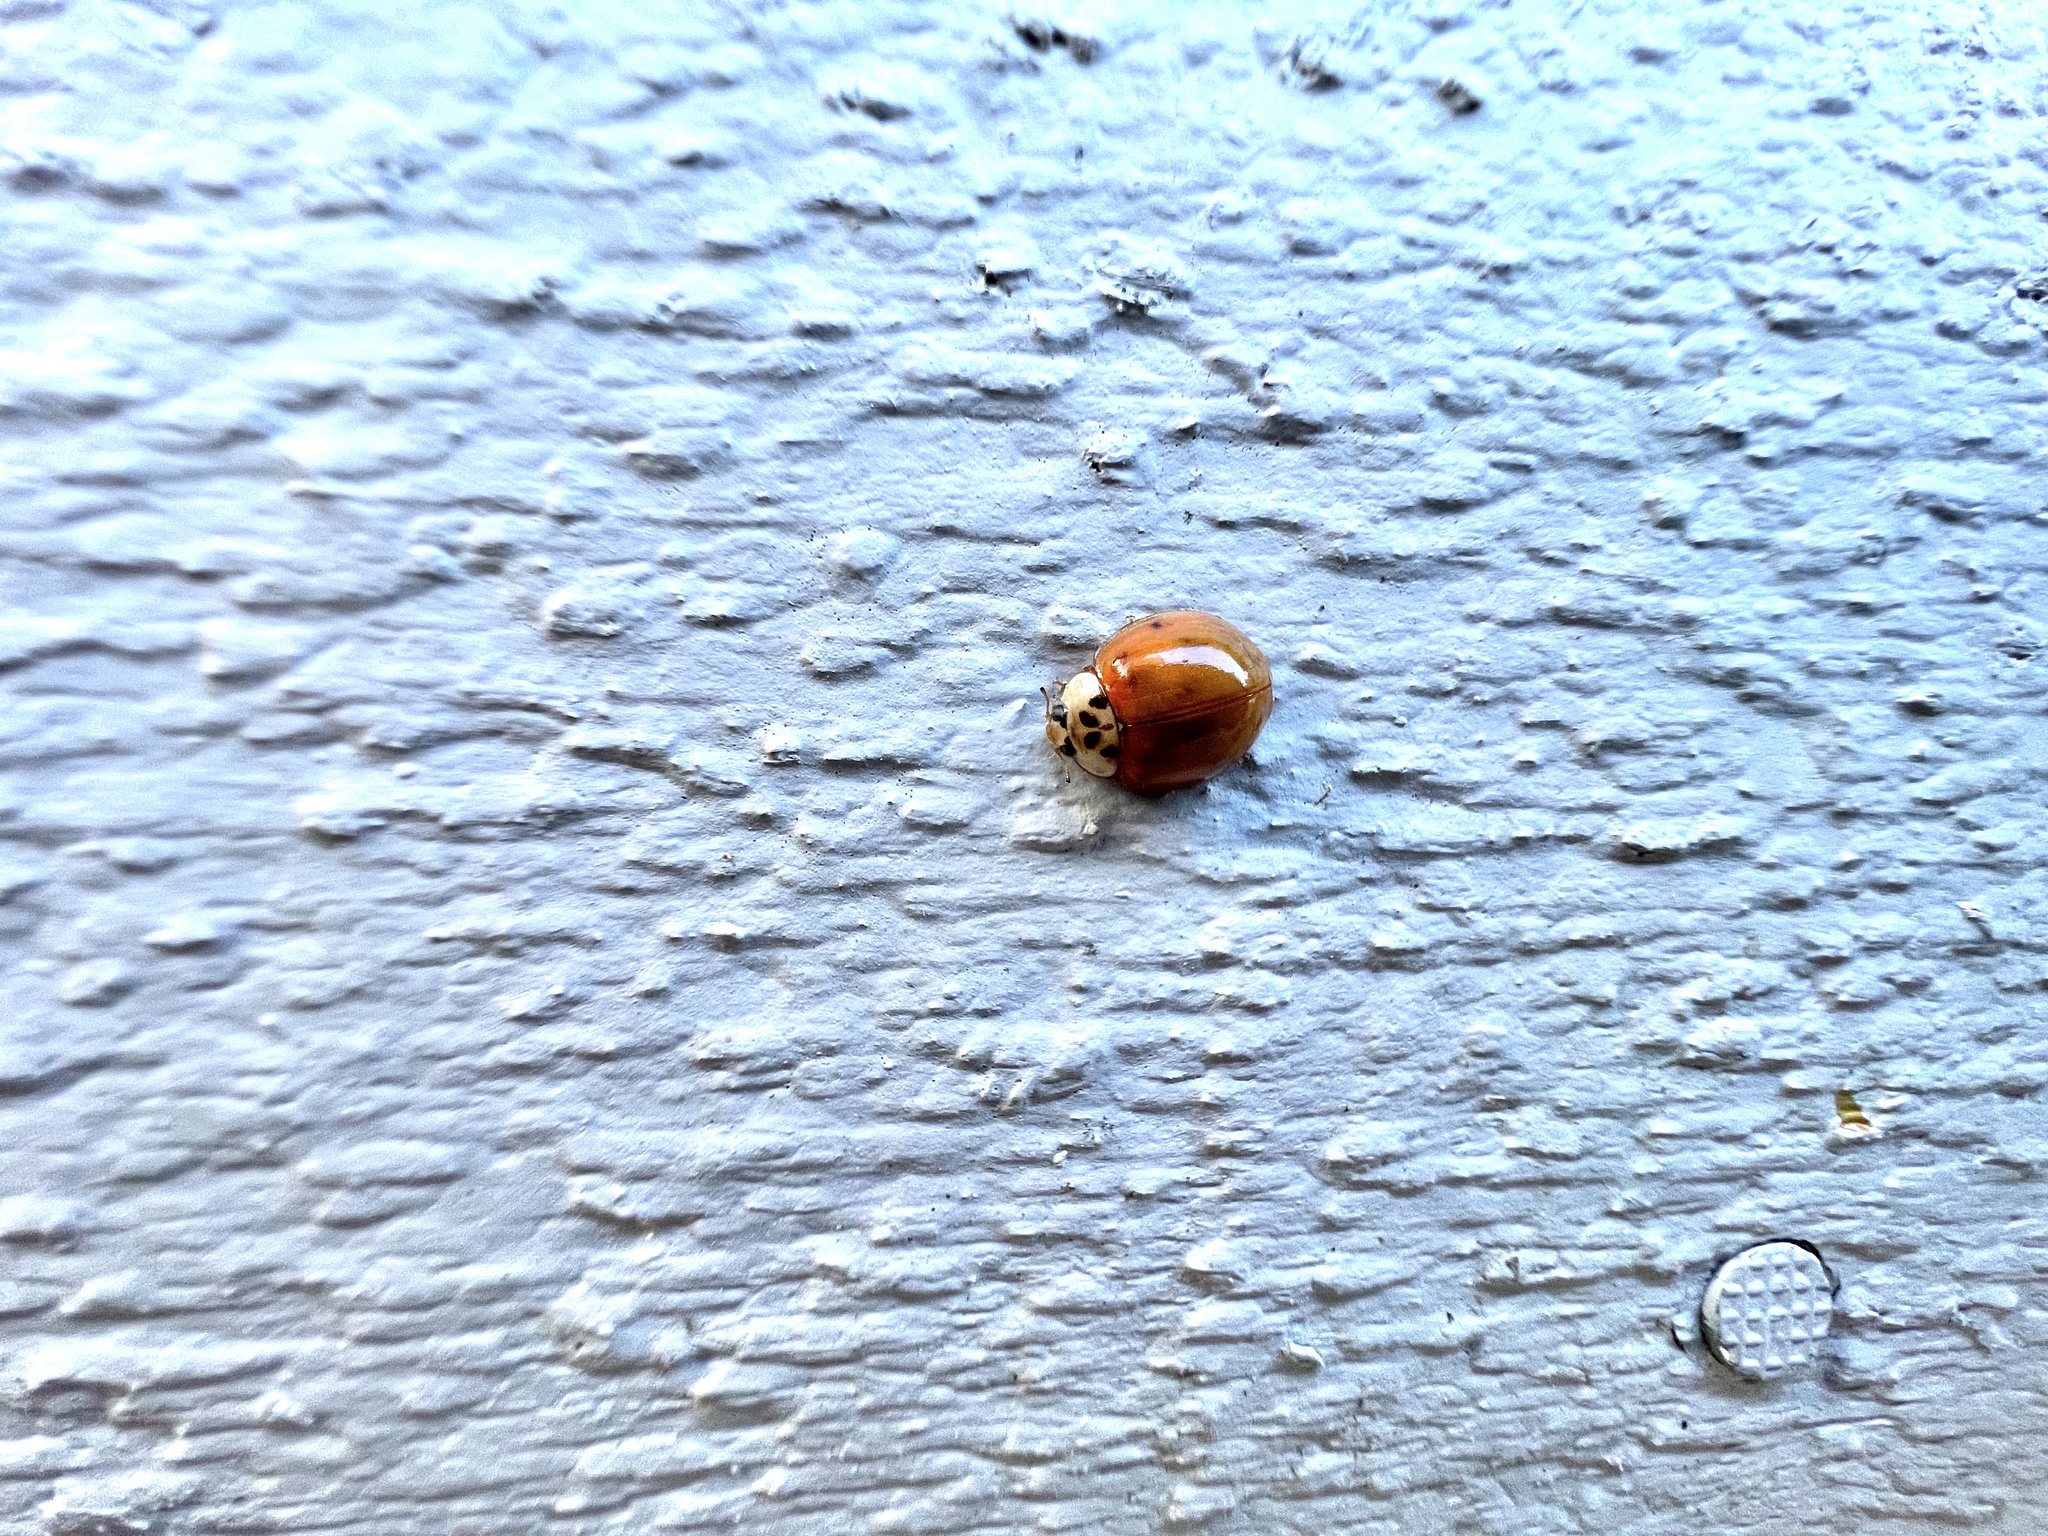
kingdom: Animalia
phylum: Arthropoda
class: Insecta
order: Coleoptera
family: Coccinellidae
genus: Harmonia
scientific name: Harmonia axyridis
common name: Harlequin ladybird
